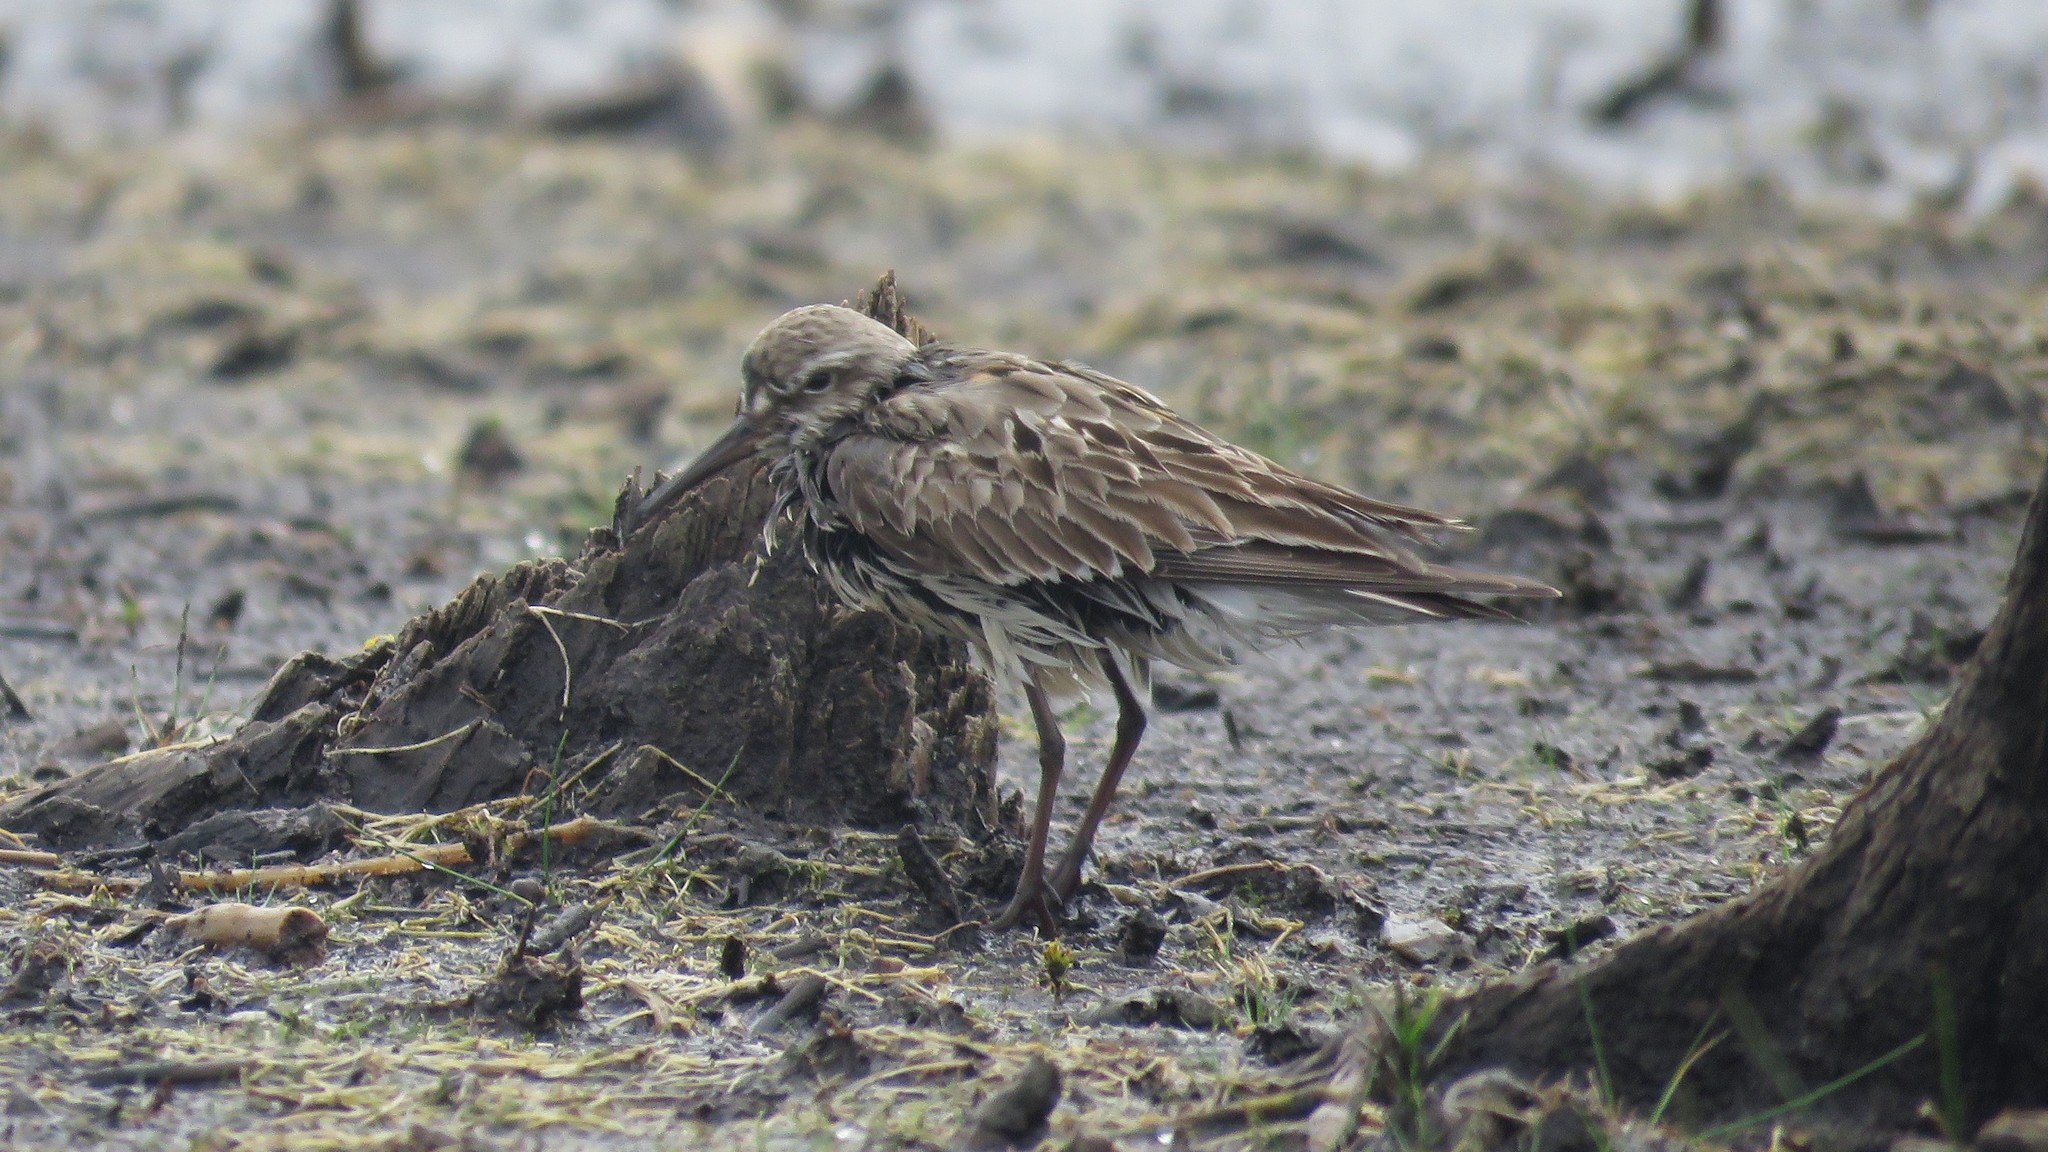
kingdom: Animalia
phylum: Chordata
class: Aves
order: Charadriiformes
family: Scolopacidae
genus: Calidris
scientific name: Calidris fuscicollis
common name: White-rumped sandpiper
